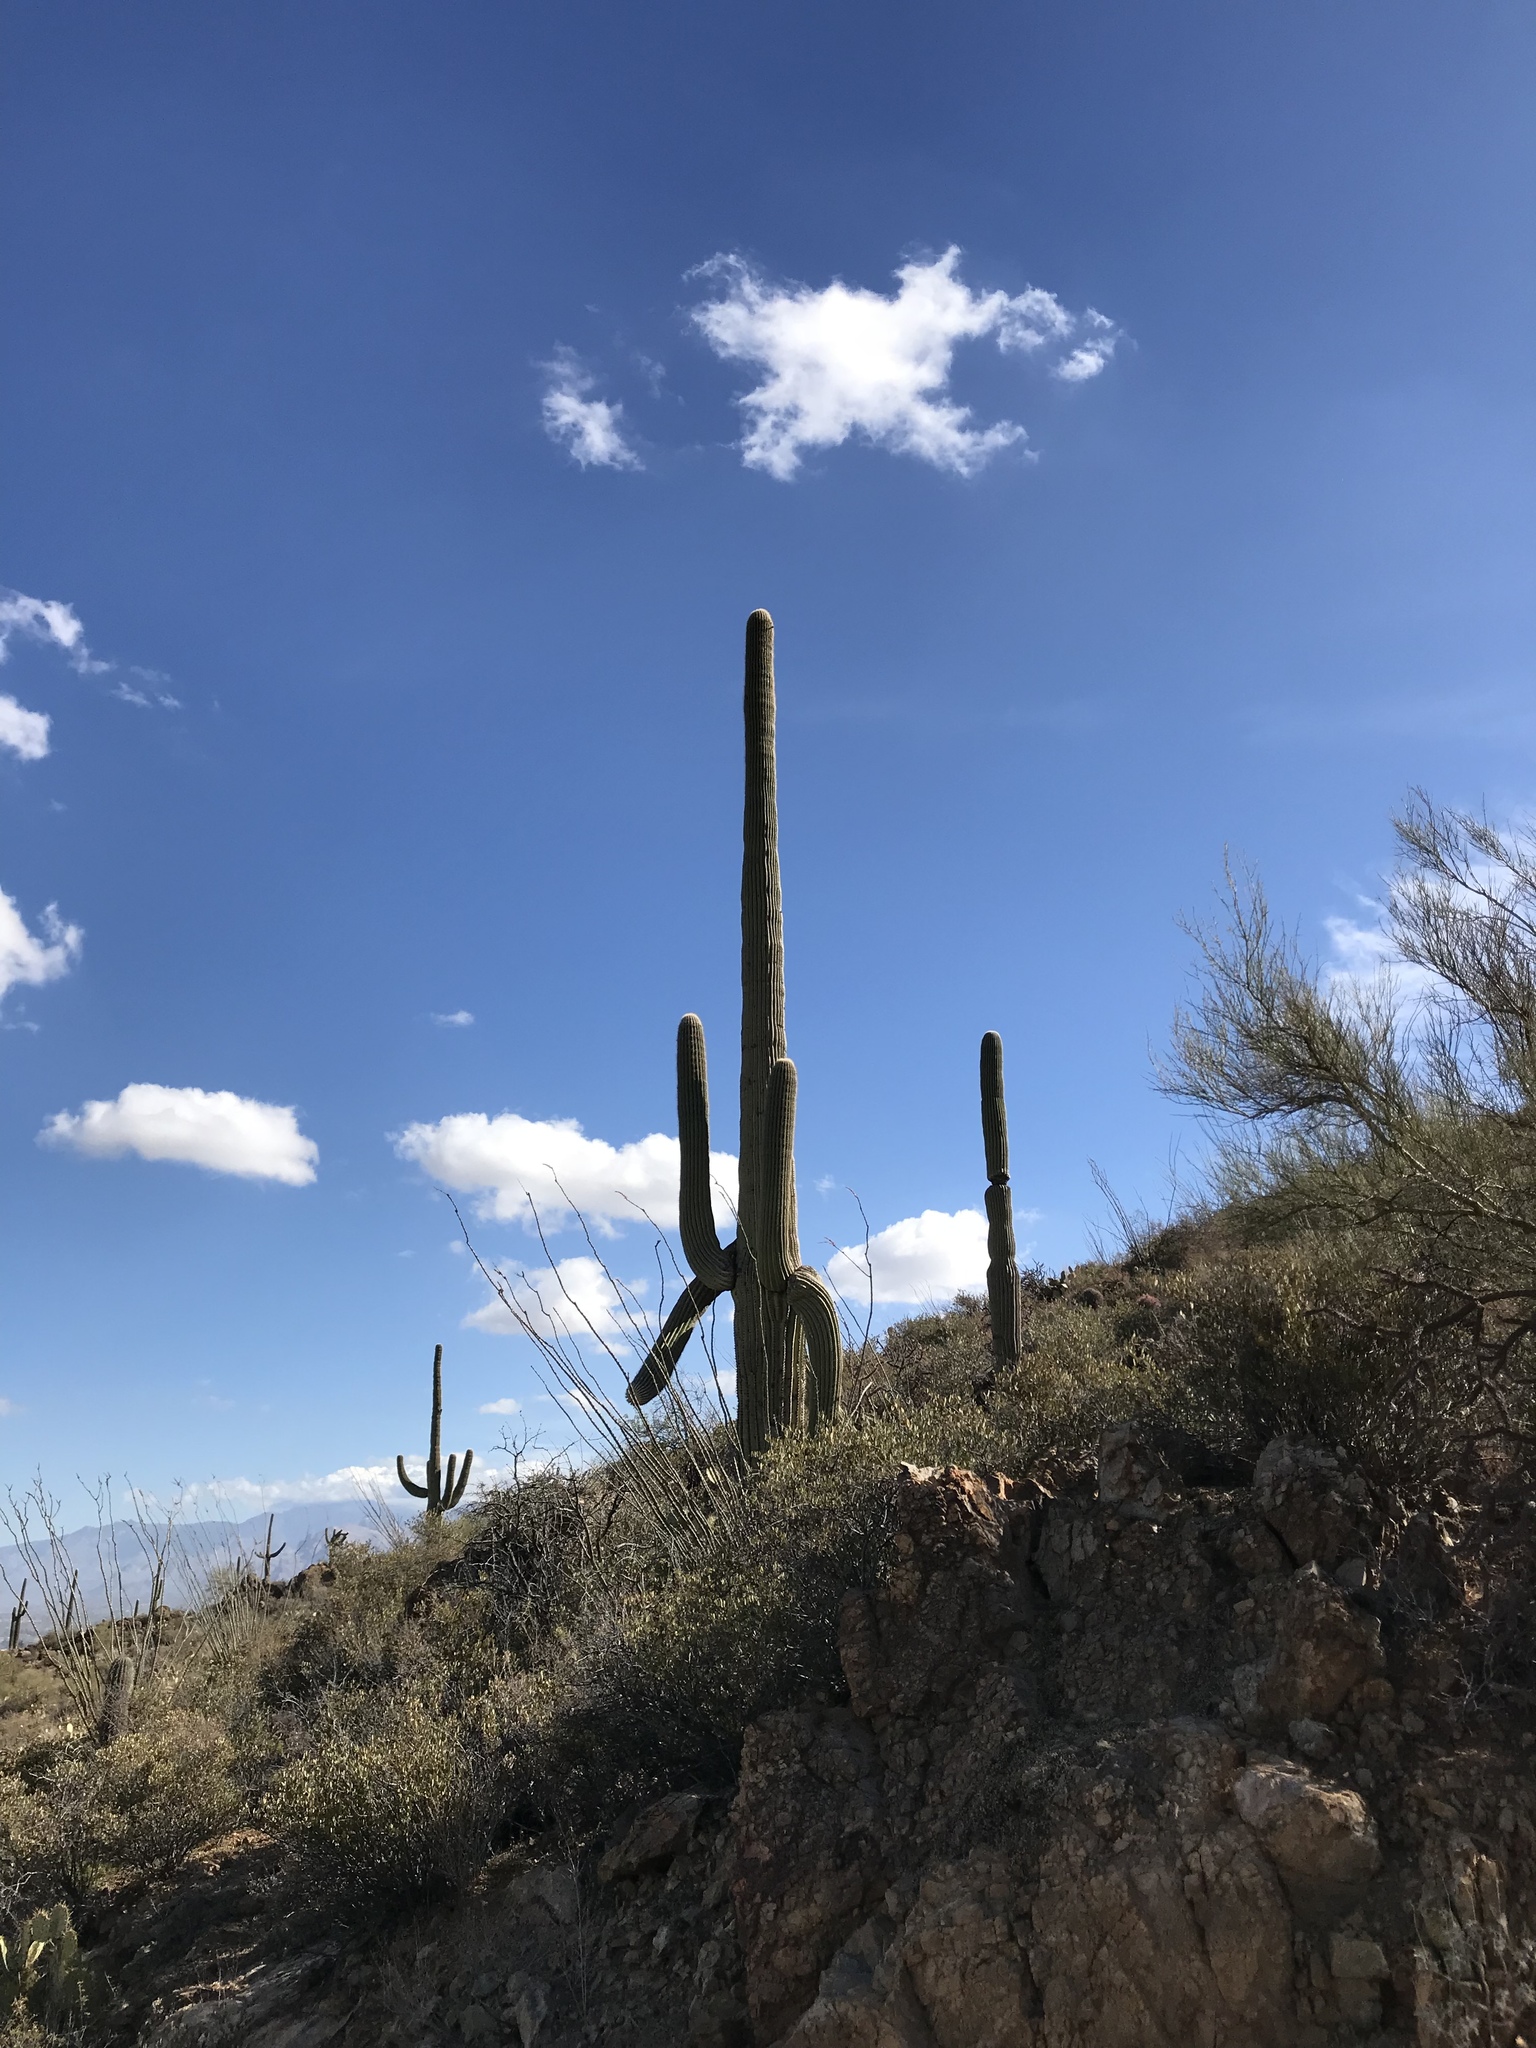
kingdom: Plantae
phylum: Tracheophyta
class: Magnoliopsida
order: Caryophyllales
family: Cactaceae
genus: Carnegiea
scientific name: Carnegiea gigantea
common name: Saguaro
